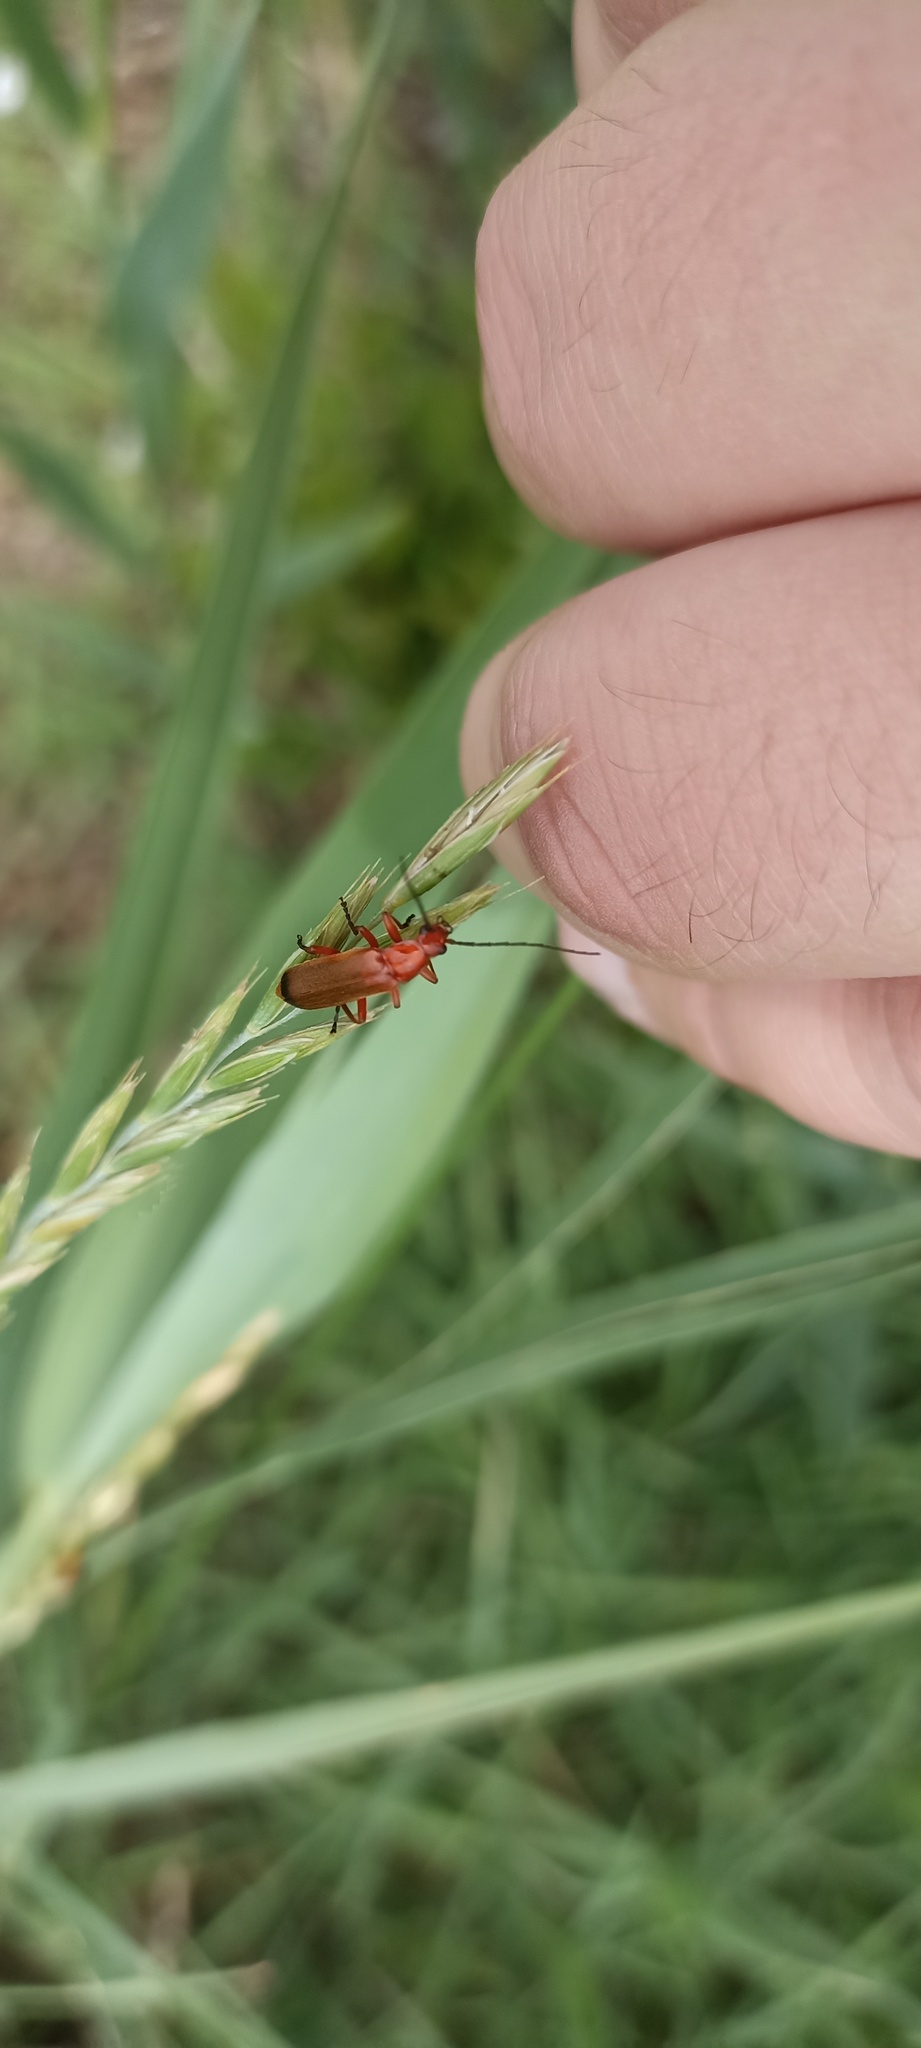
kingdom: Animalia
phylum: Arthropoda
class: Insecta
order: Coleoptera
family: Cantharidae
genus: Rhagonycha
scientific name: Rhagonycha fulva
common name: Common red soldier beetle
